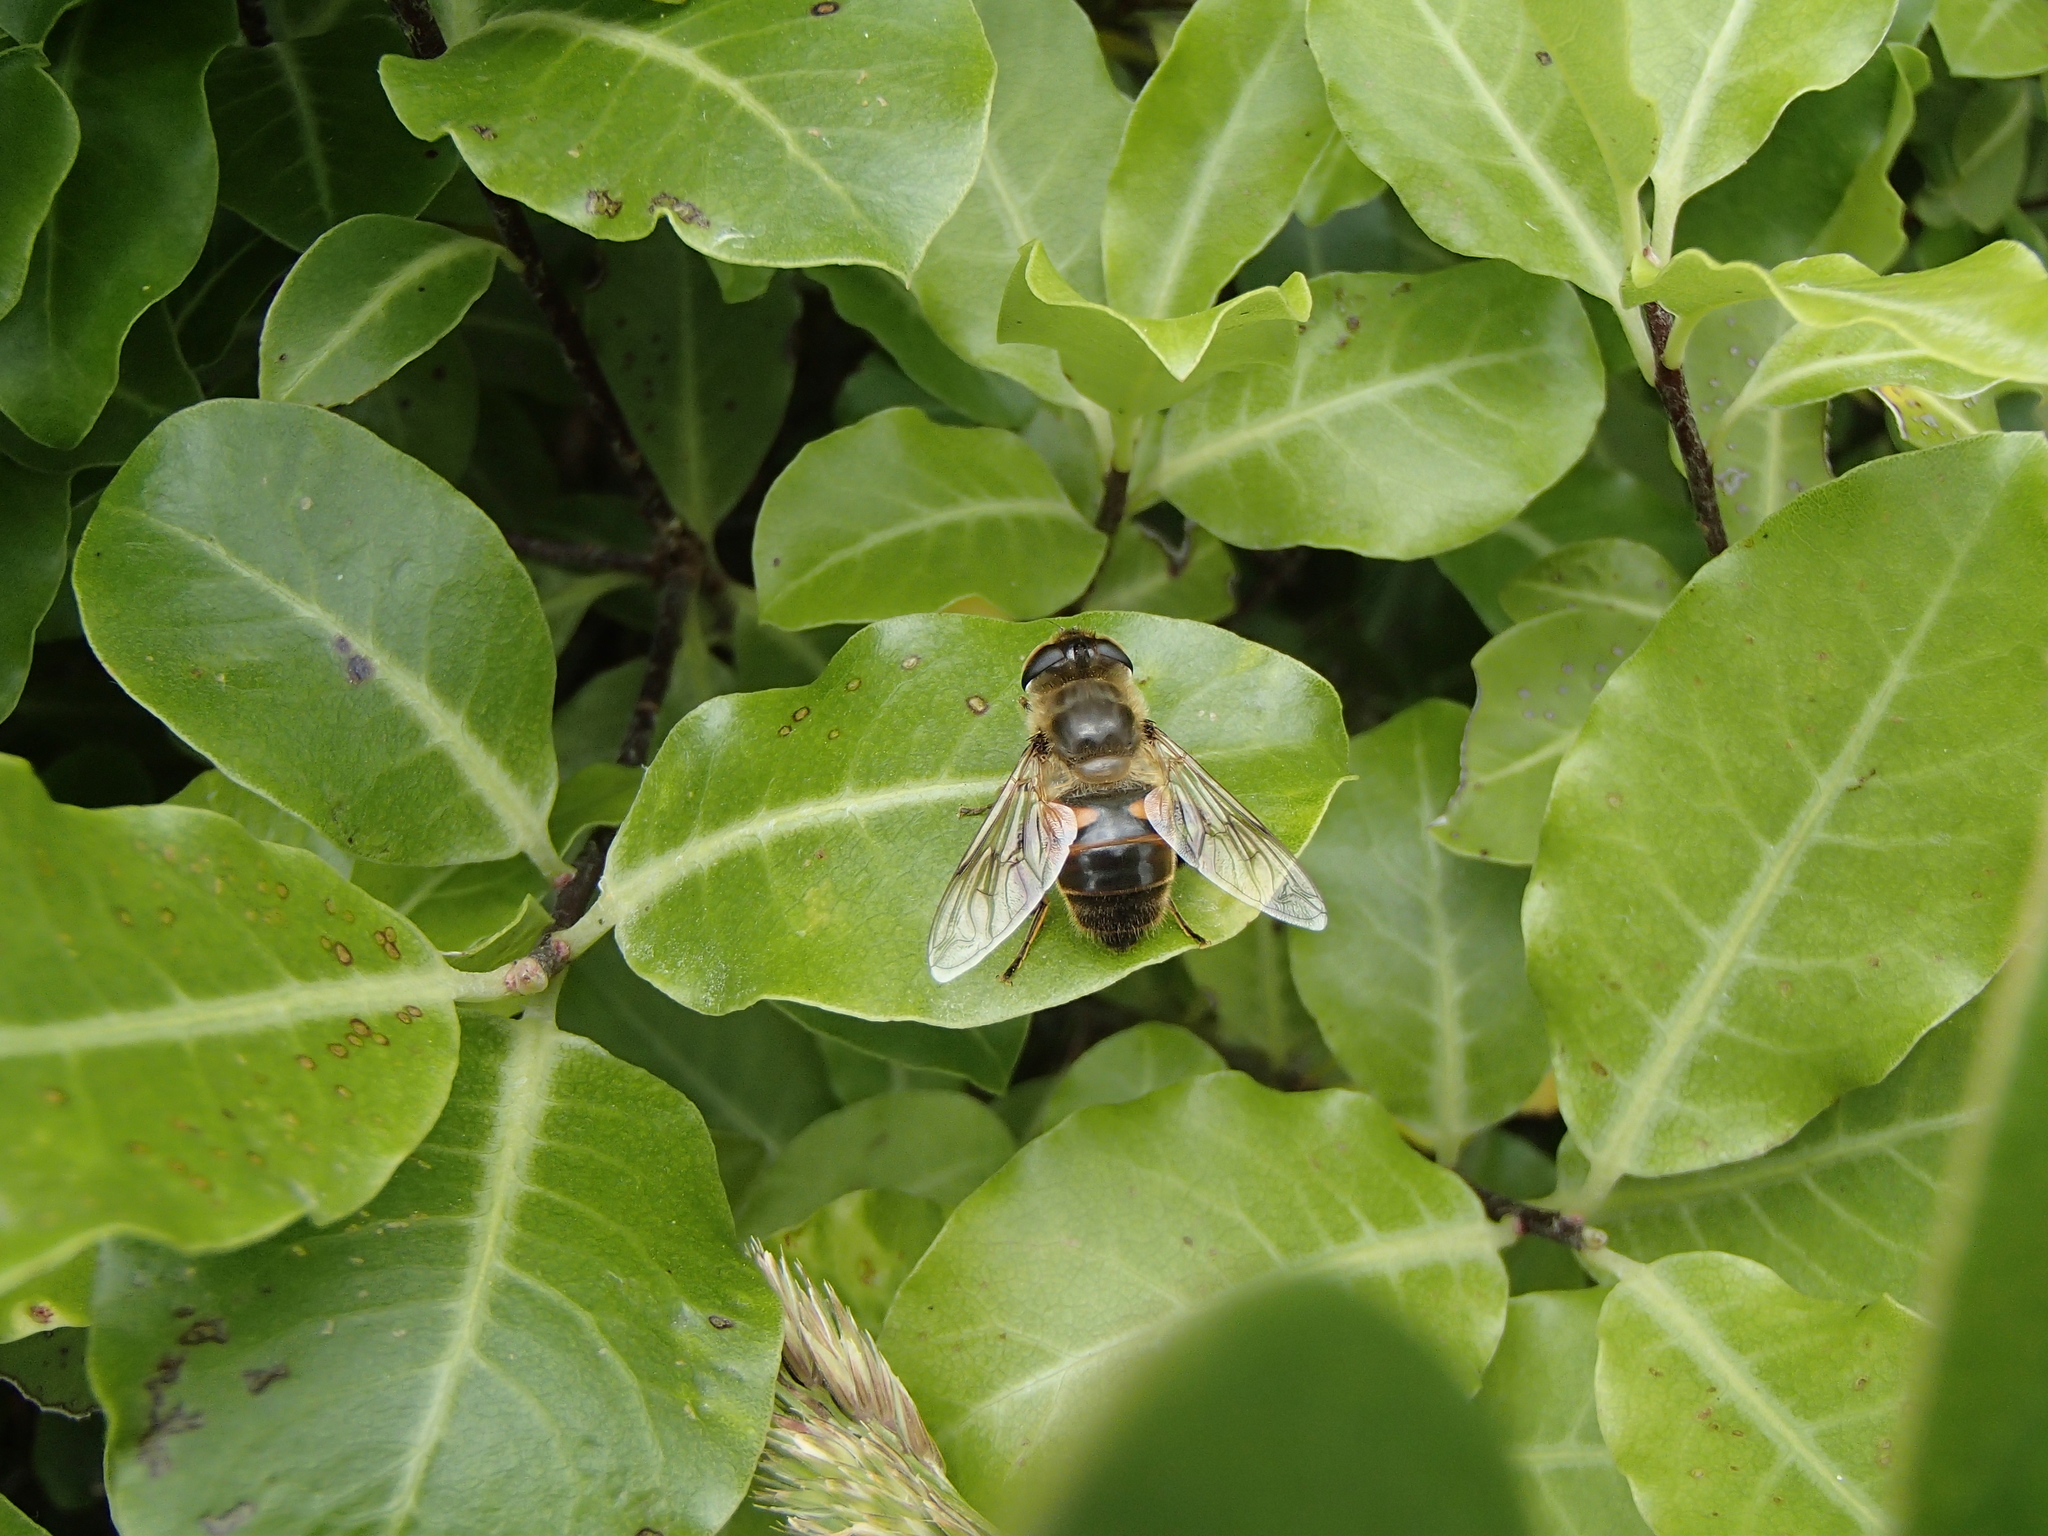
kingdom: Animalia
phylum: Arthropoda
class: Insecta
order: Diptera
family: Syrphidae
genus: Eristalis
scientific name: Eristalis tenax
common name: Drone fly
